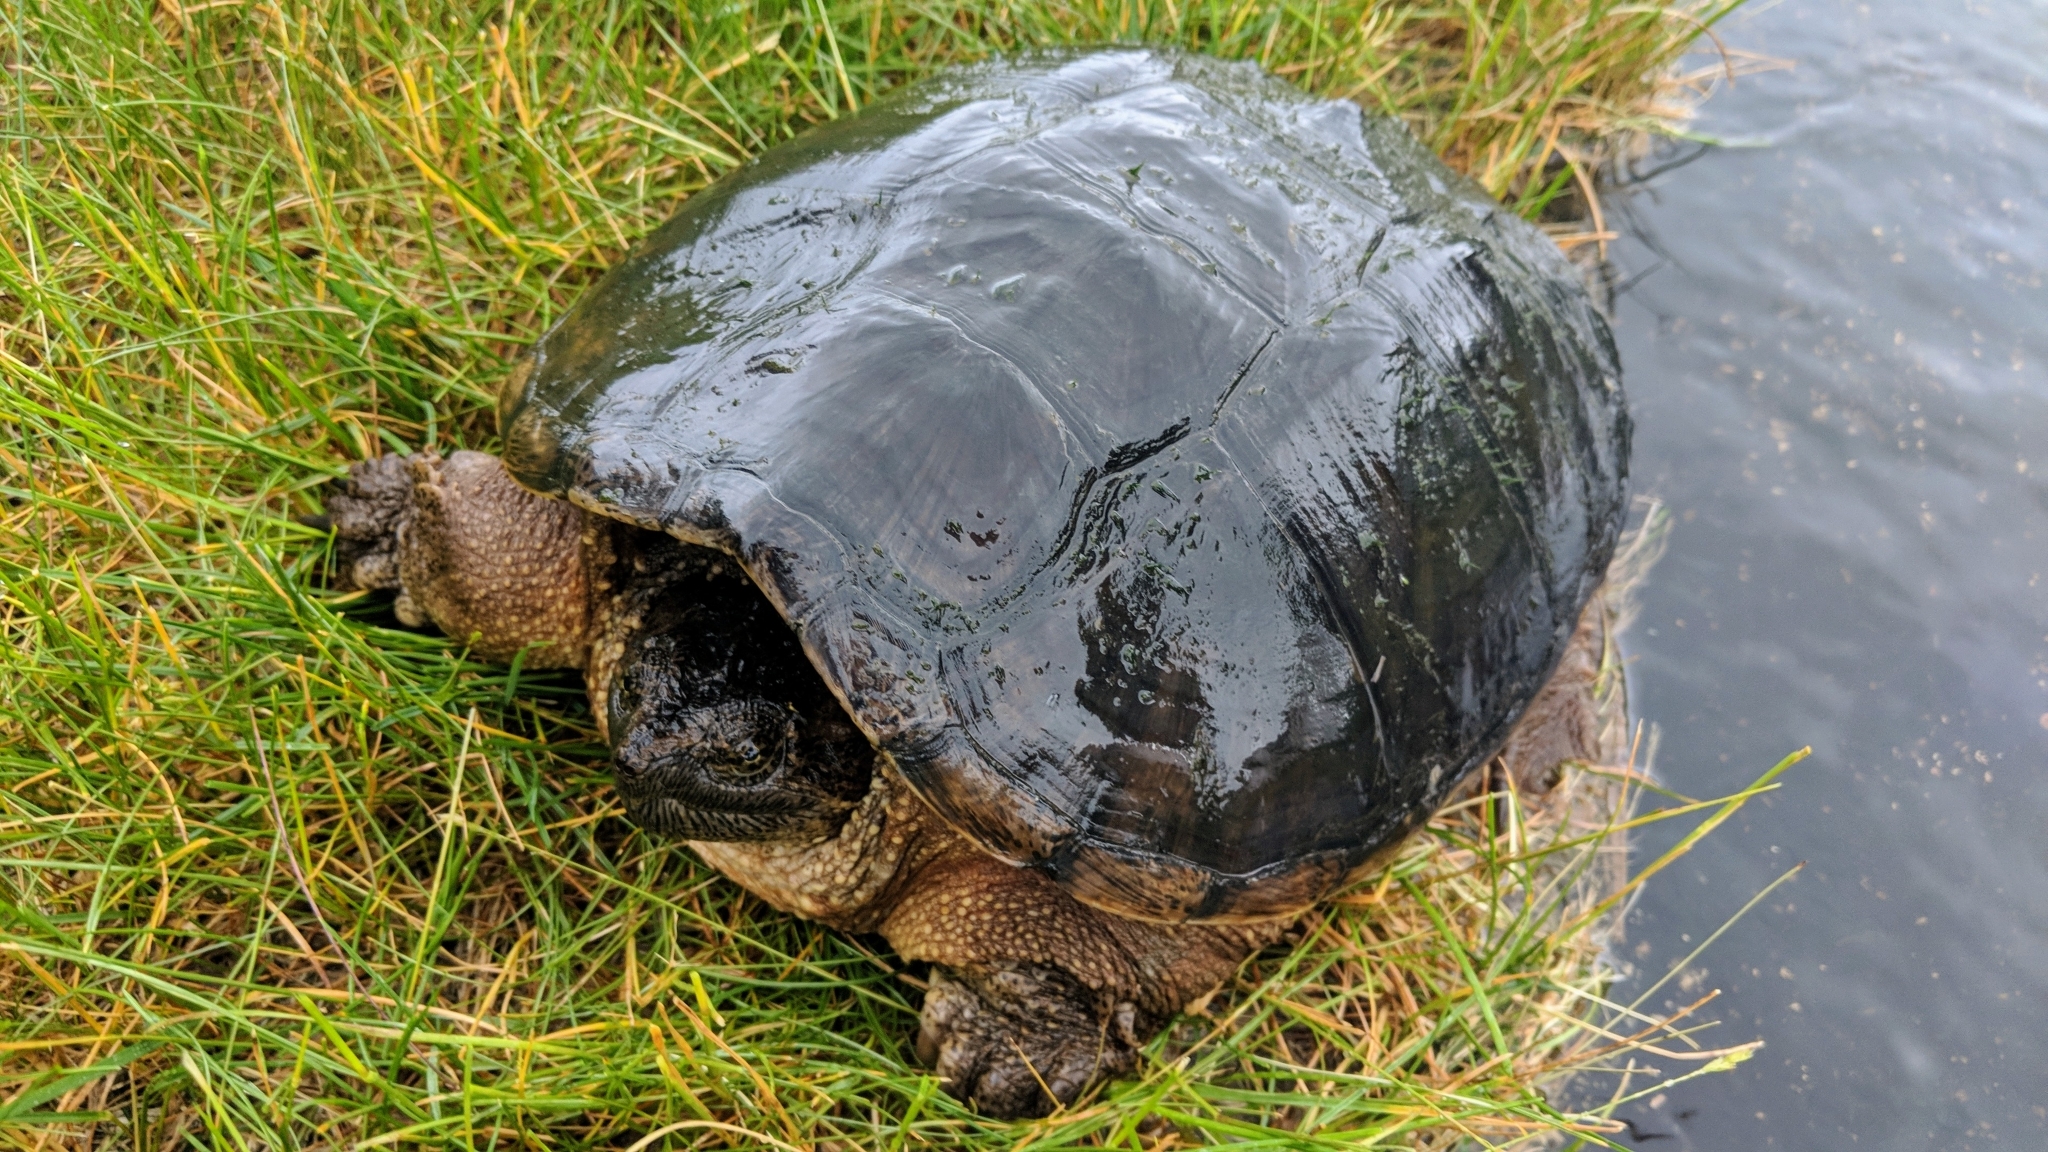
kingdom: Animalia
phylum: Chordata
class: Testudines
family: Chelydridae
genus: Chelydra
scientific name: Chelydra serpentina
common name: Common snapping turtle
